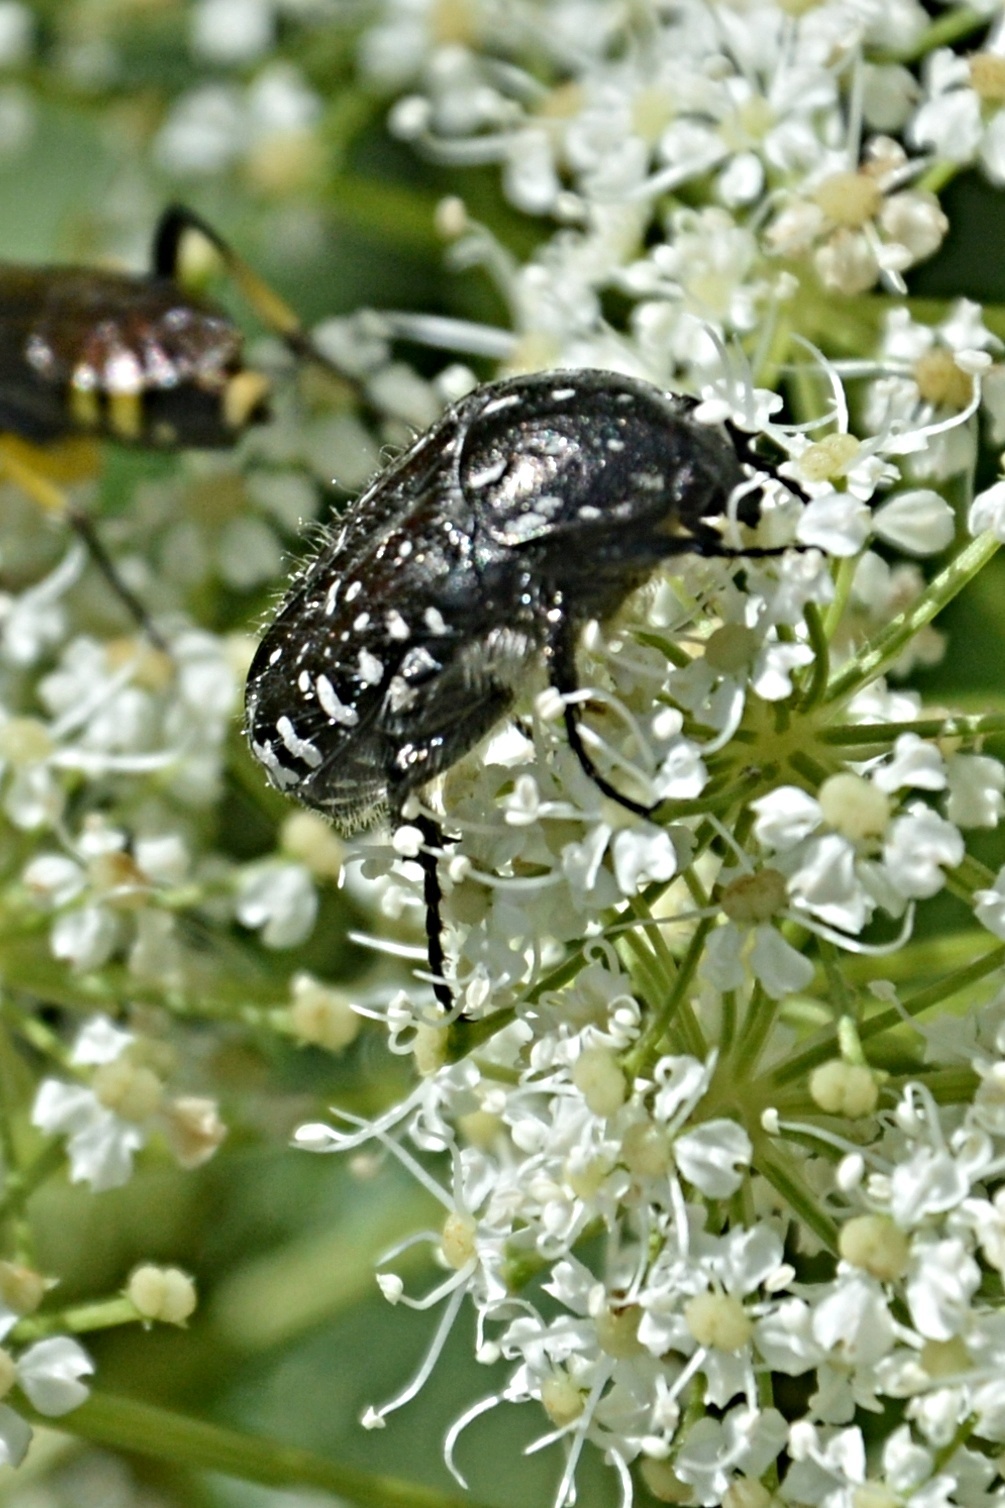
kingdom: Animalia
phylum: Arthropoda
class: Insecta
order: Coleoptera
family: Scarabaeidae
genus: Oxythyrea
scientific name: Oxythyrea funesta
